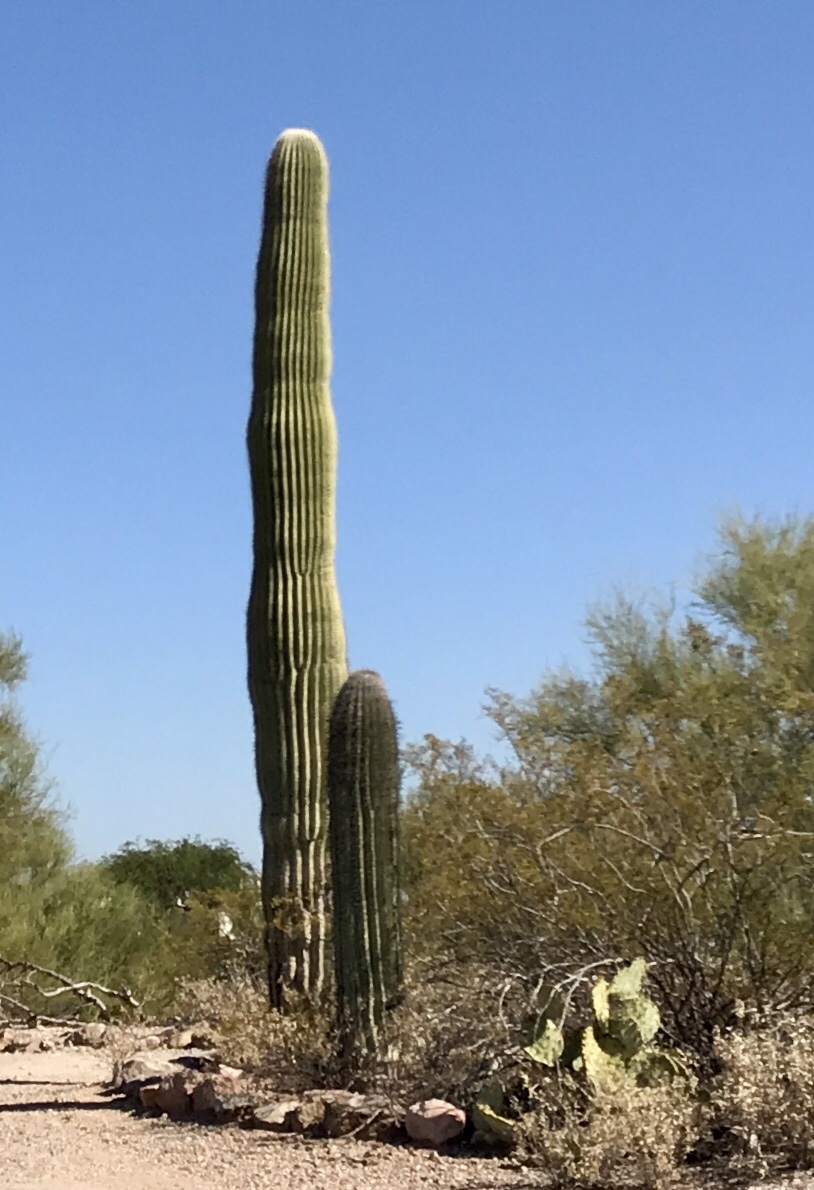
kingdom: Plantae
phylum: Tracheophyta
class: Magnoliopsida
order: Caryophyllales
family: Cactaceae
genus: Carnegiea
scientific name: Carnegiea gigantea
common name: Saguaro
